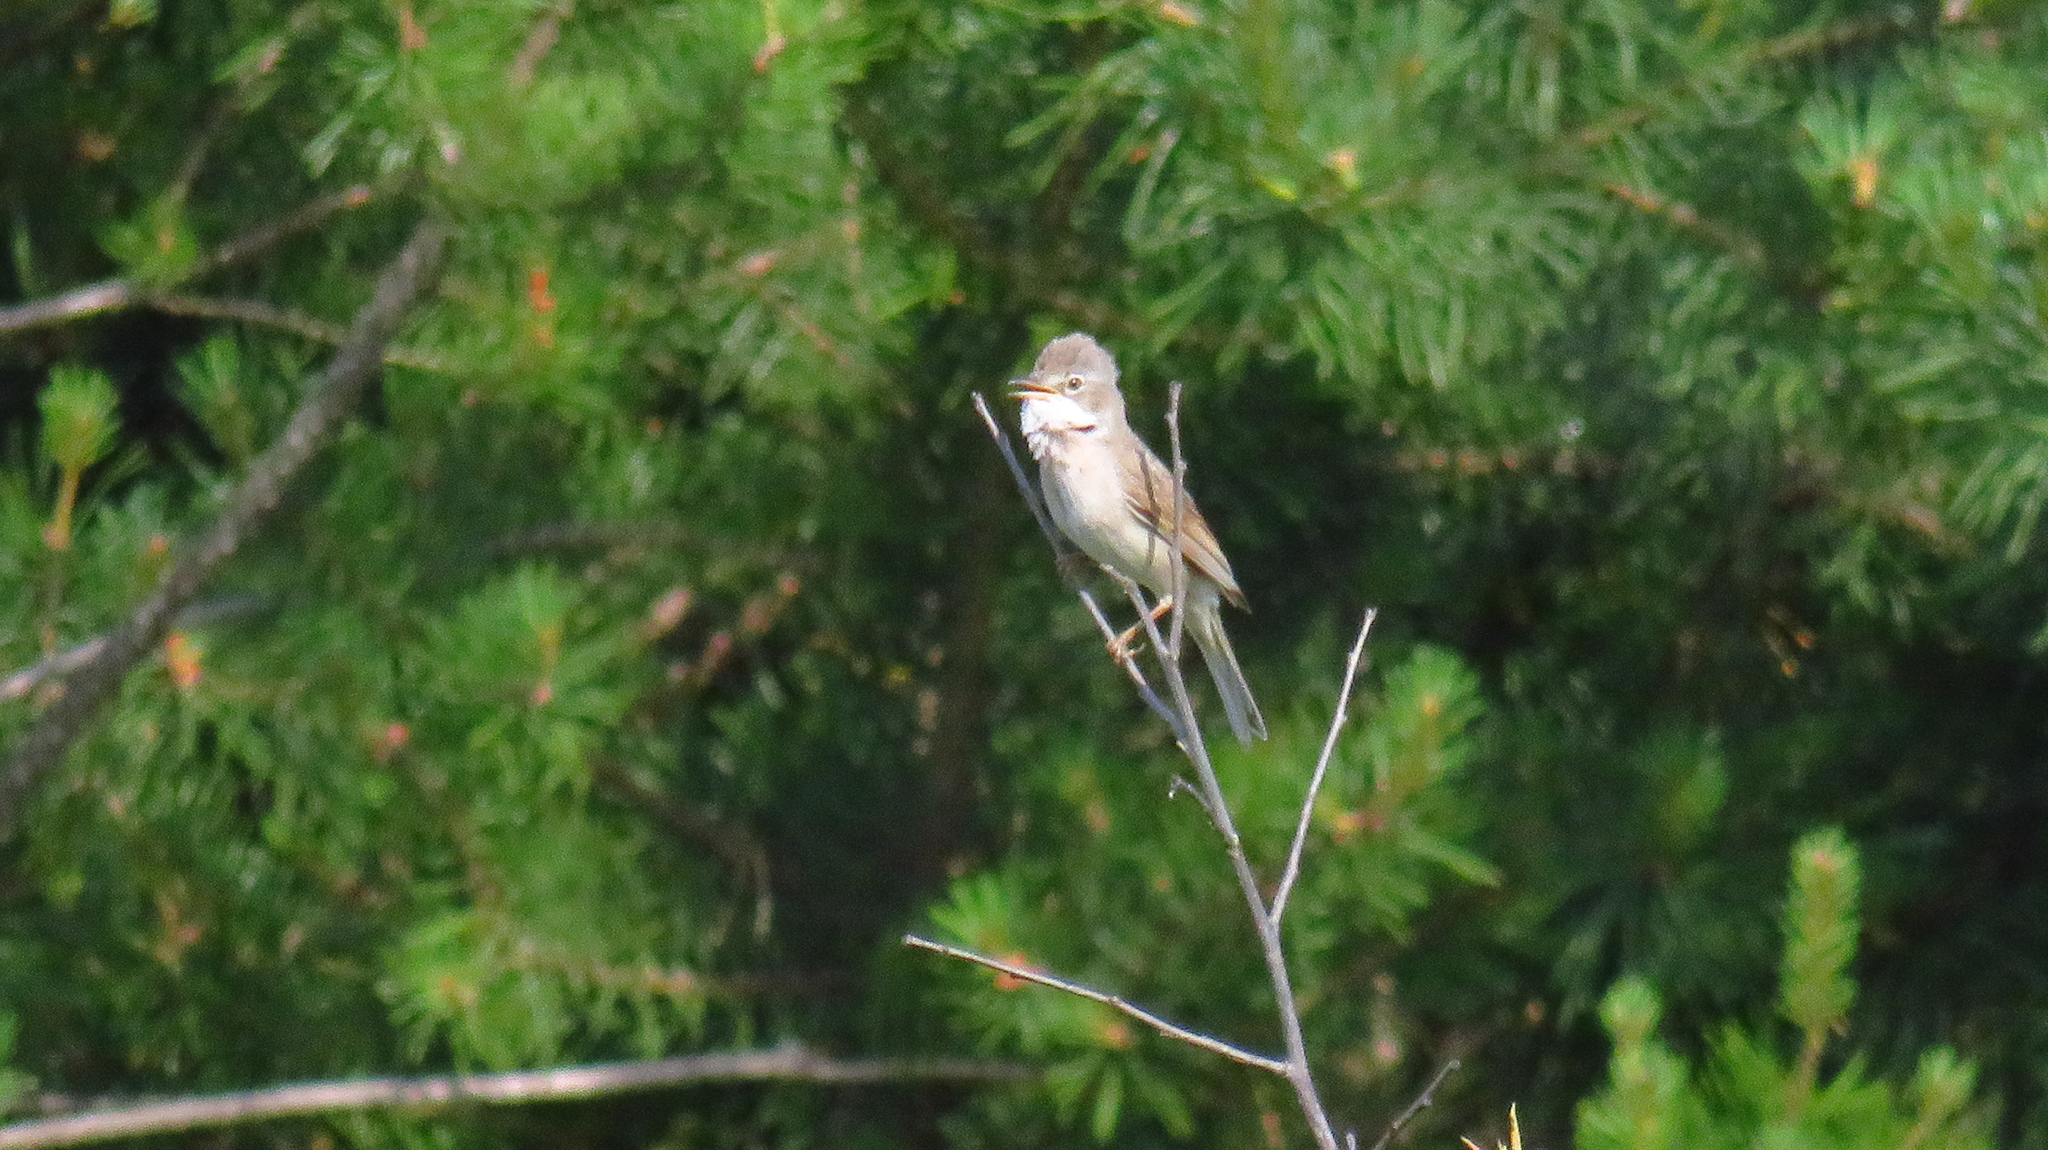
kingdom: Animalia
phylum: Chordata
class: Aves
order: Passeriformes
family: Sylviidae
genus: Sylvia
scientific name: Sylvia communis
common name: Common whitethroat
